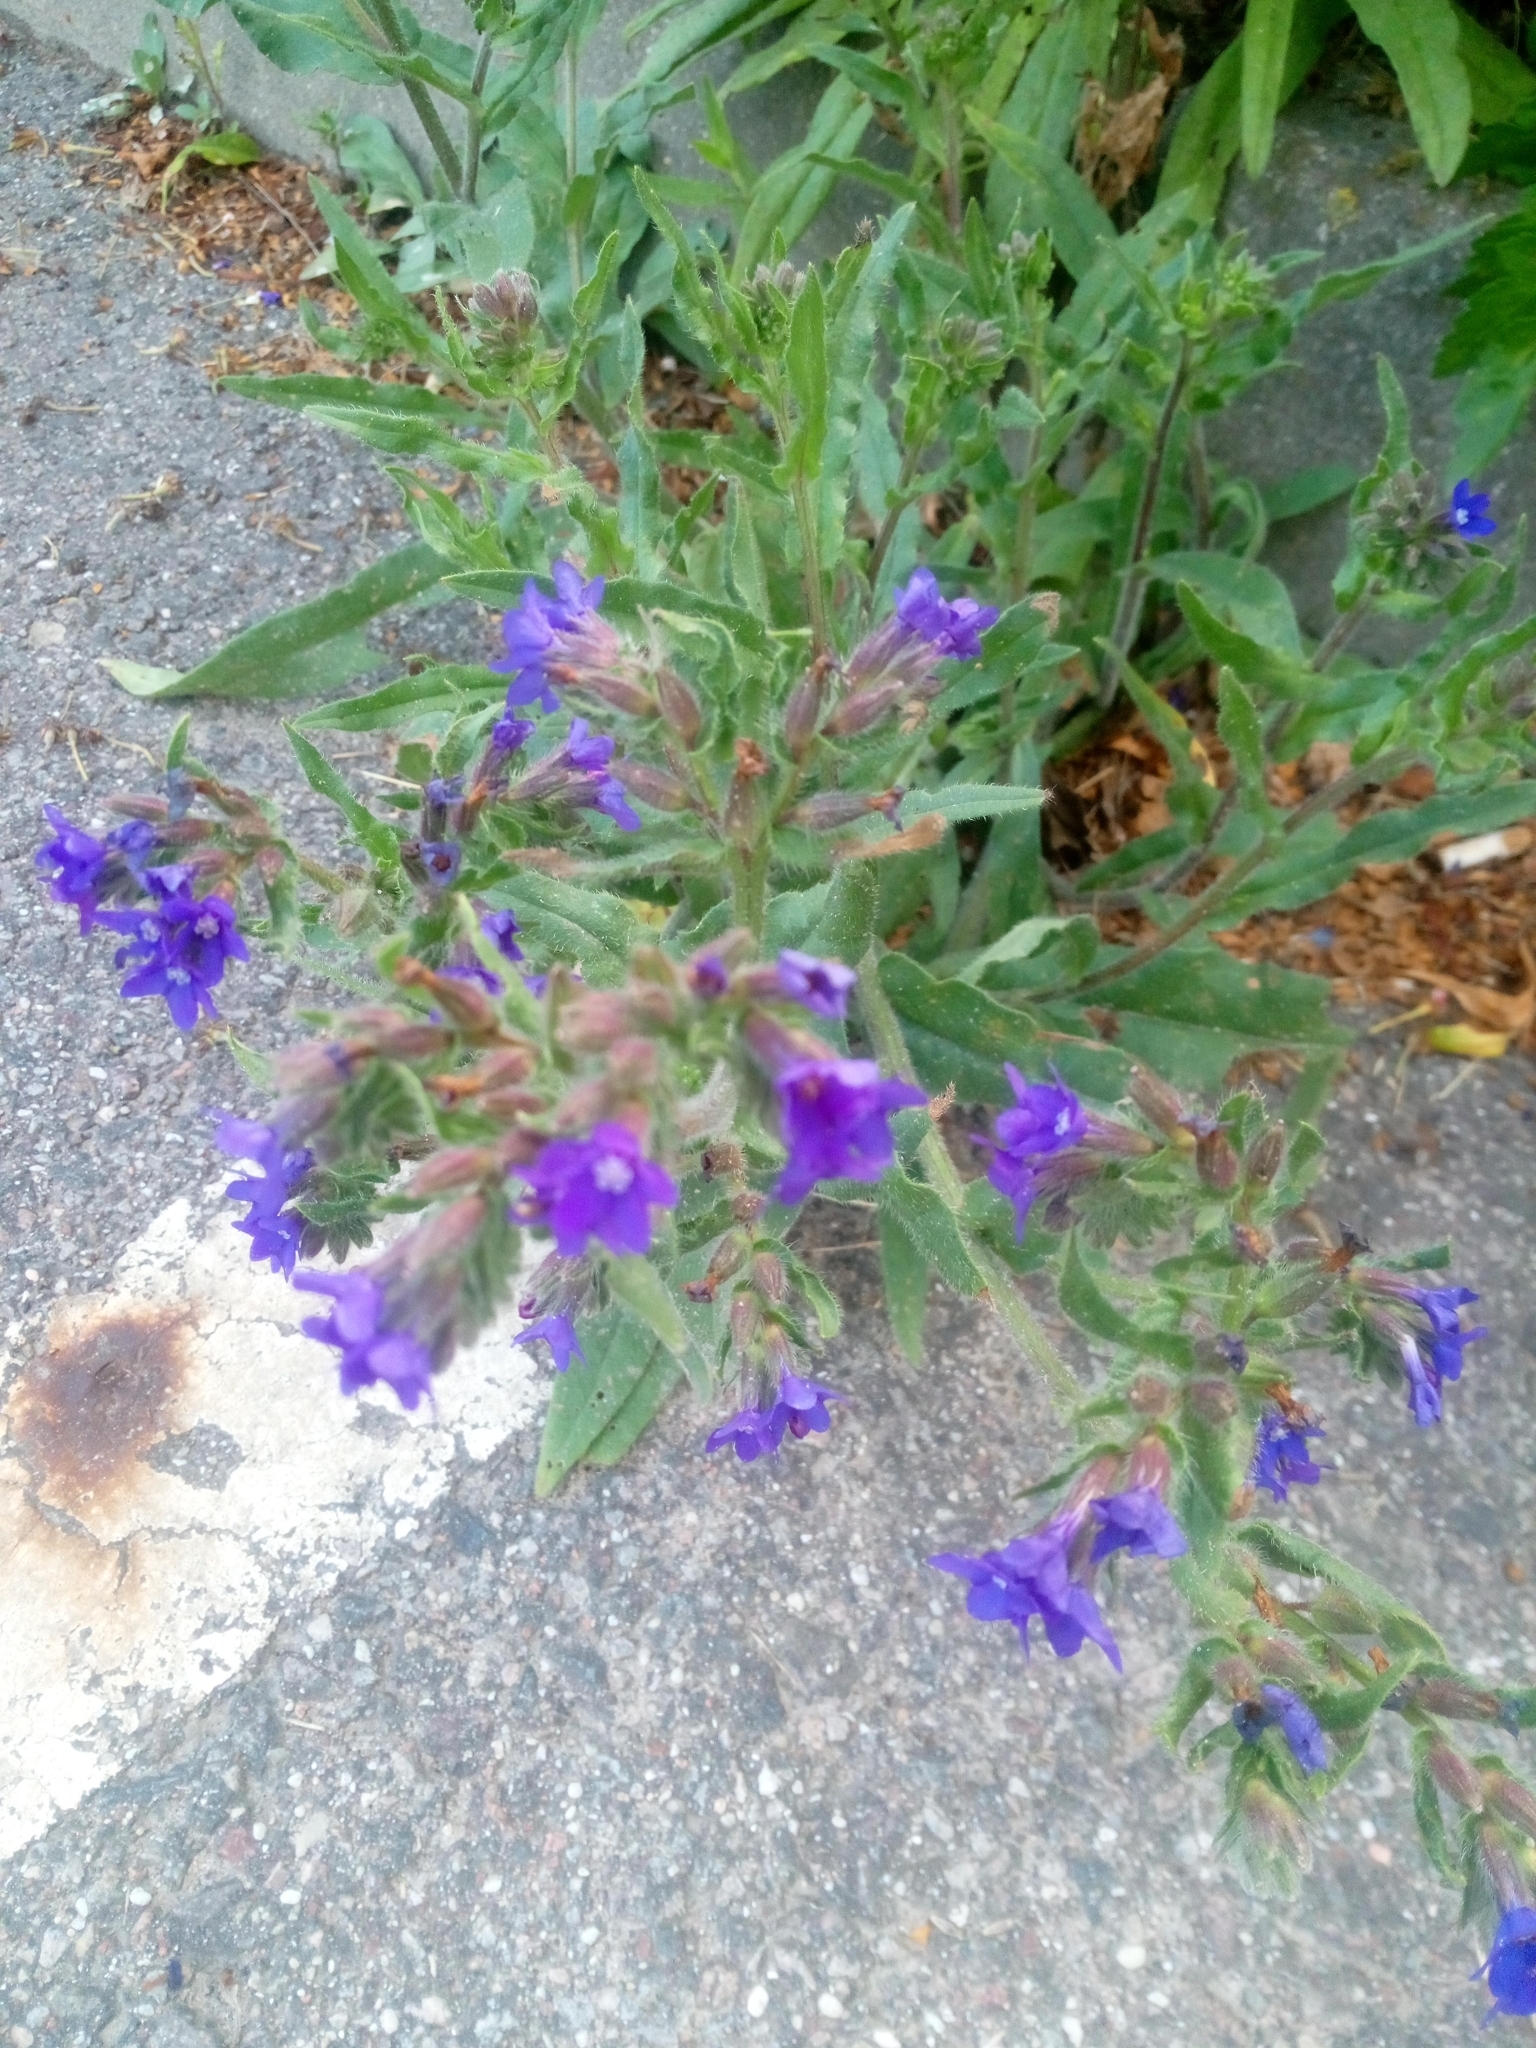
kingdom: Plantae
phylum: Tracheophyta
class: Magnoliopsida
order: Boraginales
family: Boraginaceae
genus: Anchusa
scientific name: Anchusa officinalis
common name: Alkanet
